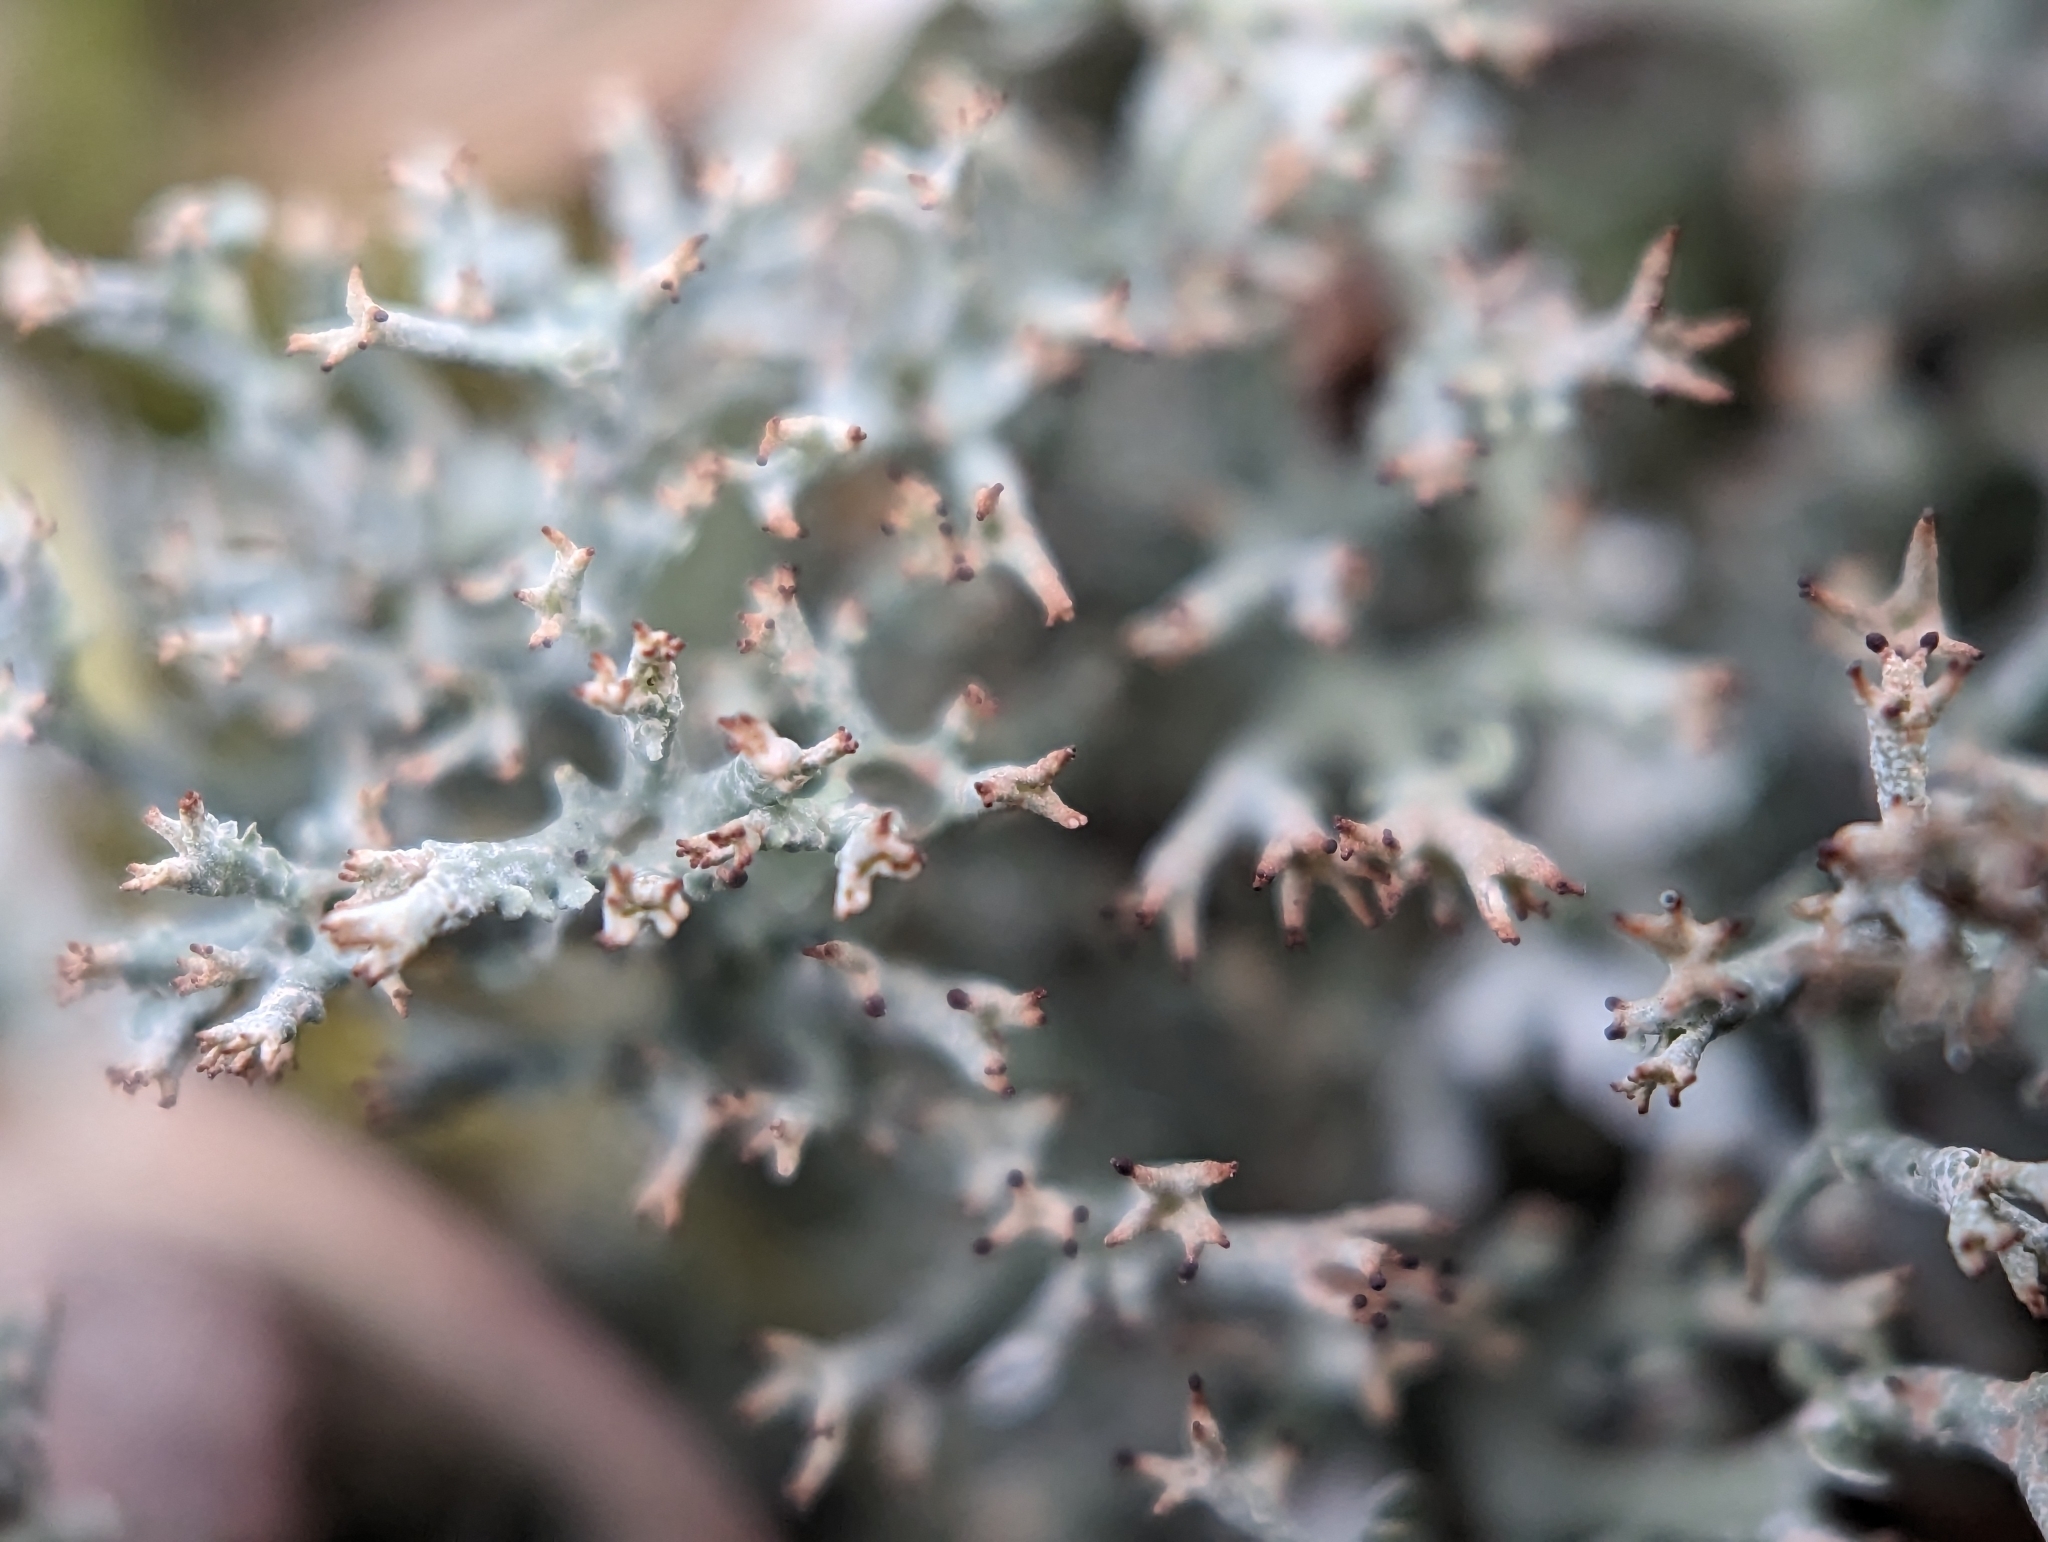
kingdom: Fungi
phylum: Ascomycota
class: Lecanoromycetes
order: Lecanorales
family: Cladoniaceae
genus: Cladonia
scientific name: Cladonia furcata
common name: Many-forked cladonia
